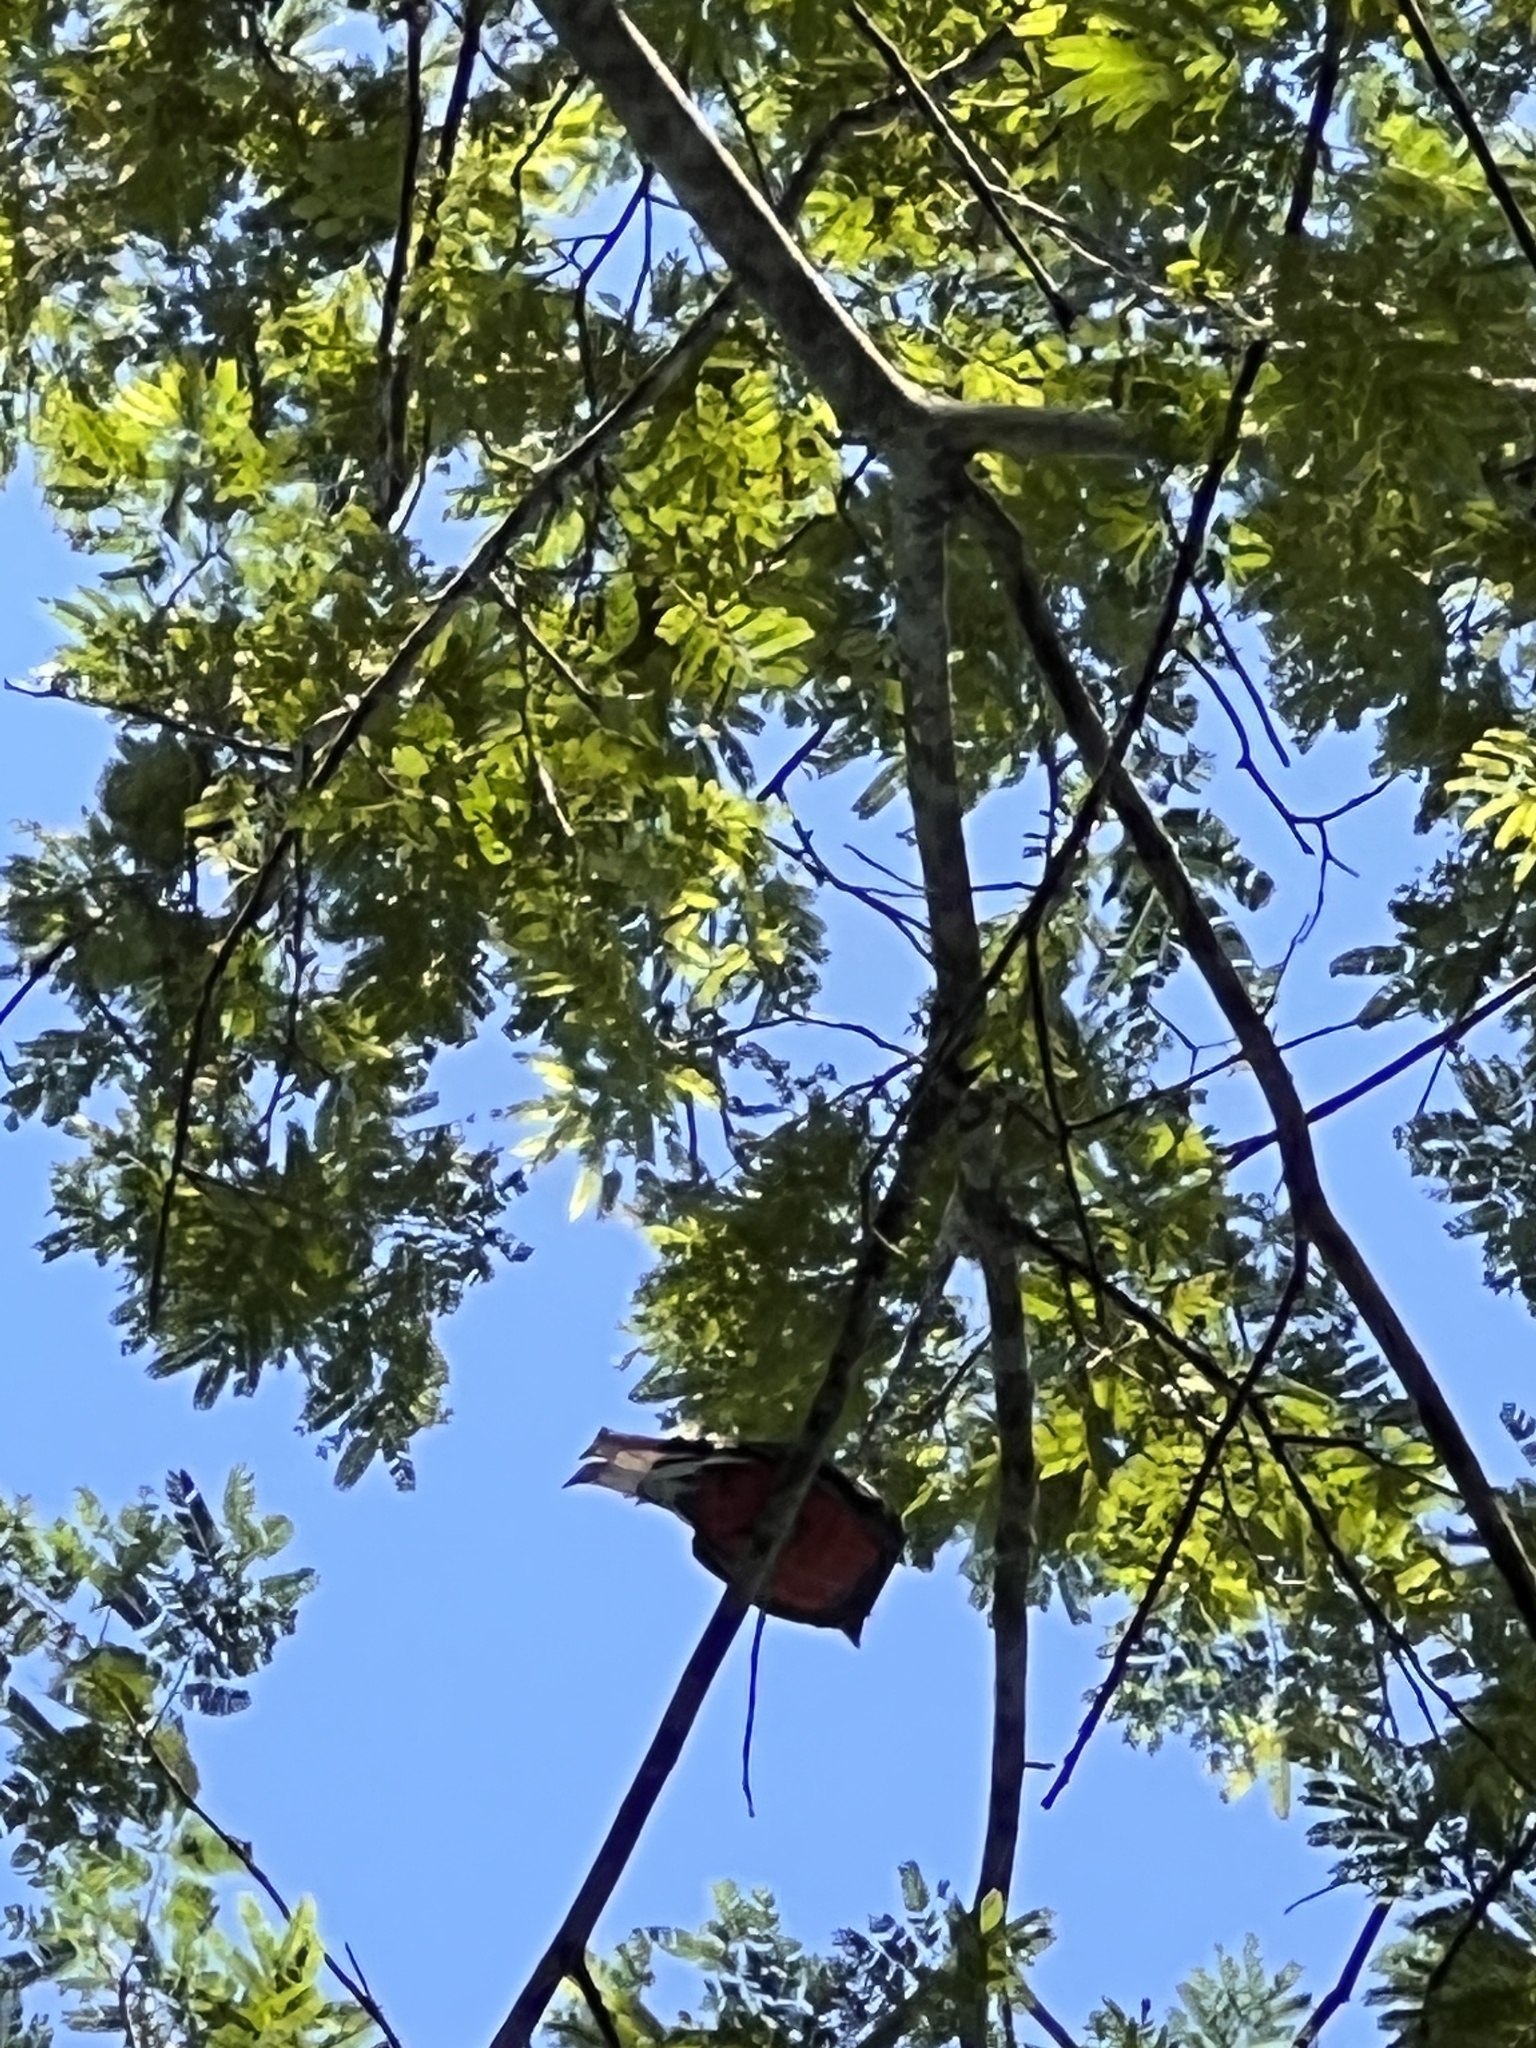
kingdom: Animalia
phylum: Chordata
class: Aves
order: Trogoniformes
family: Trogonidae
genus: Trogon
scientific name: Trogon surrucura
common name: Surucua trogon
